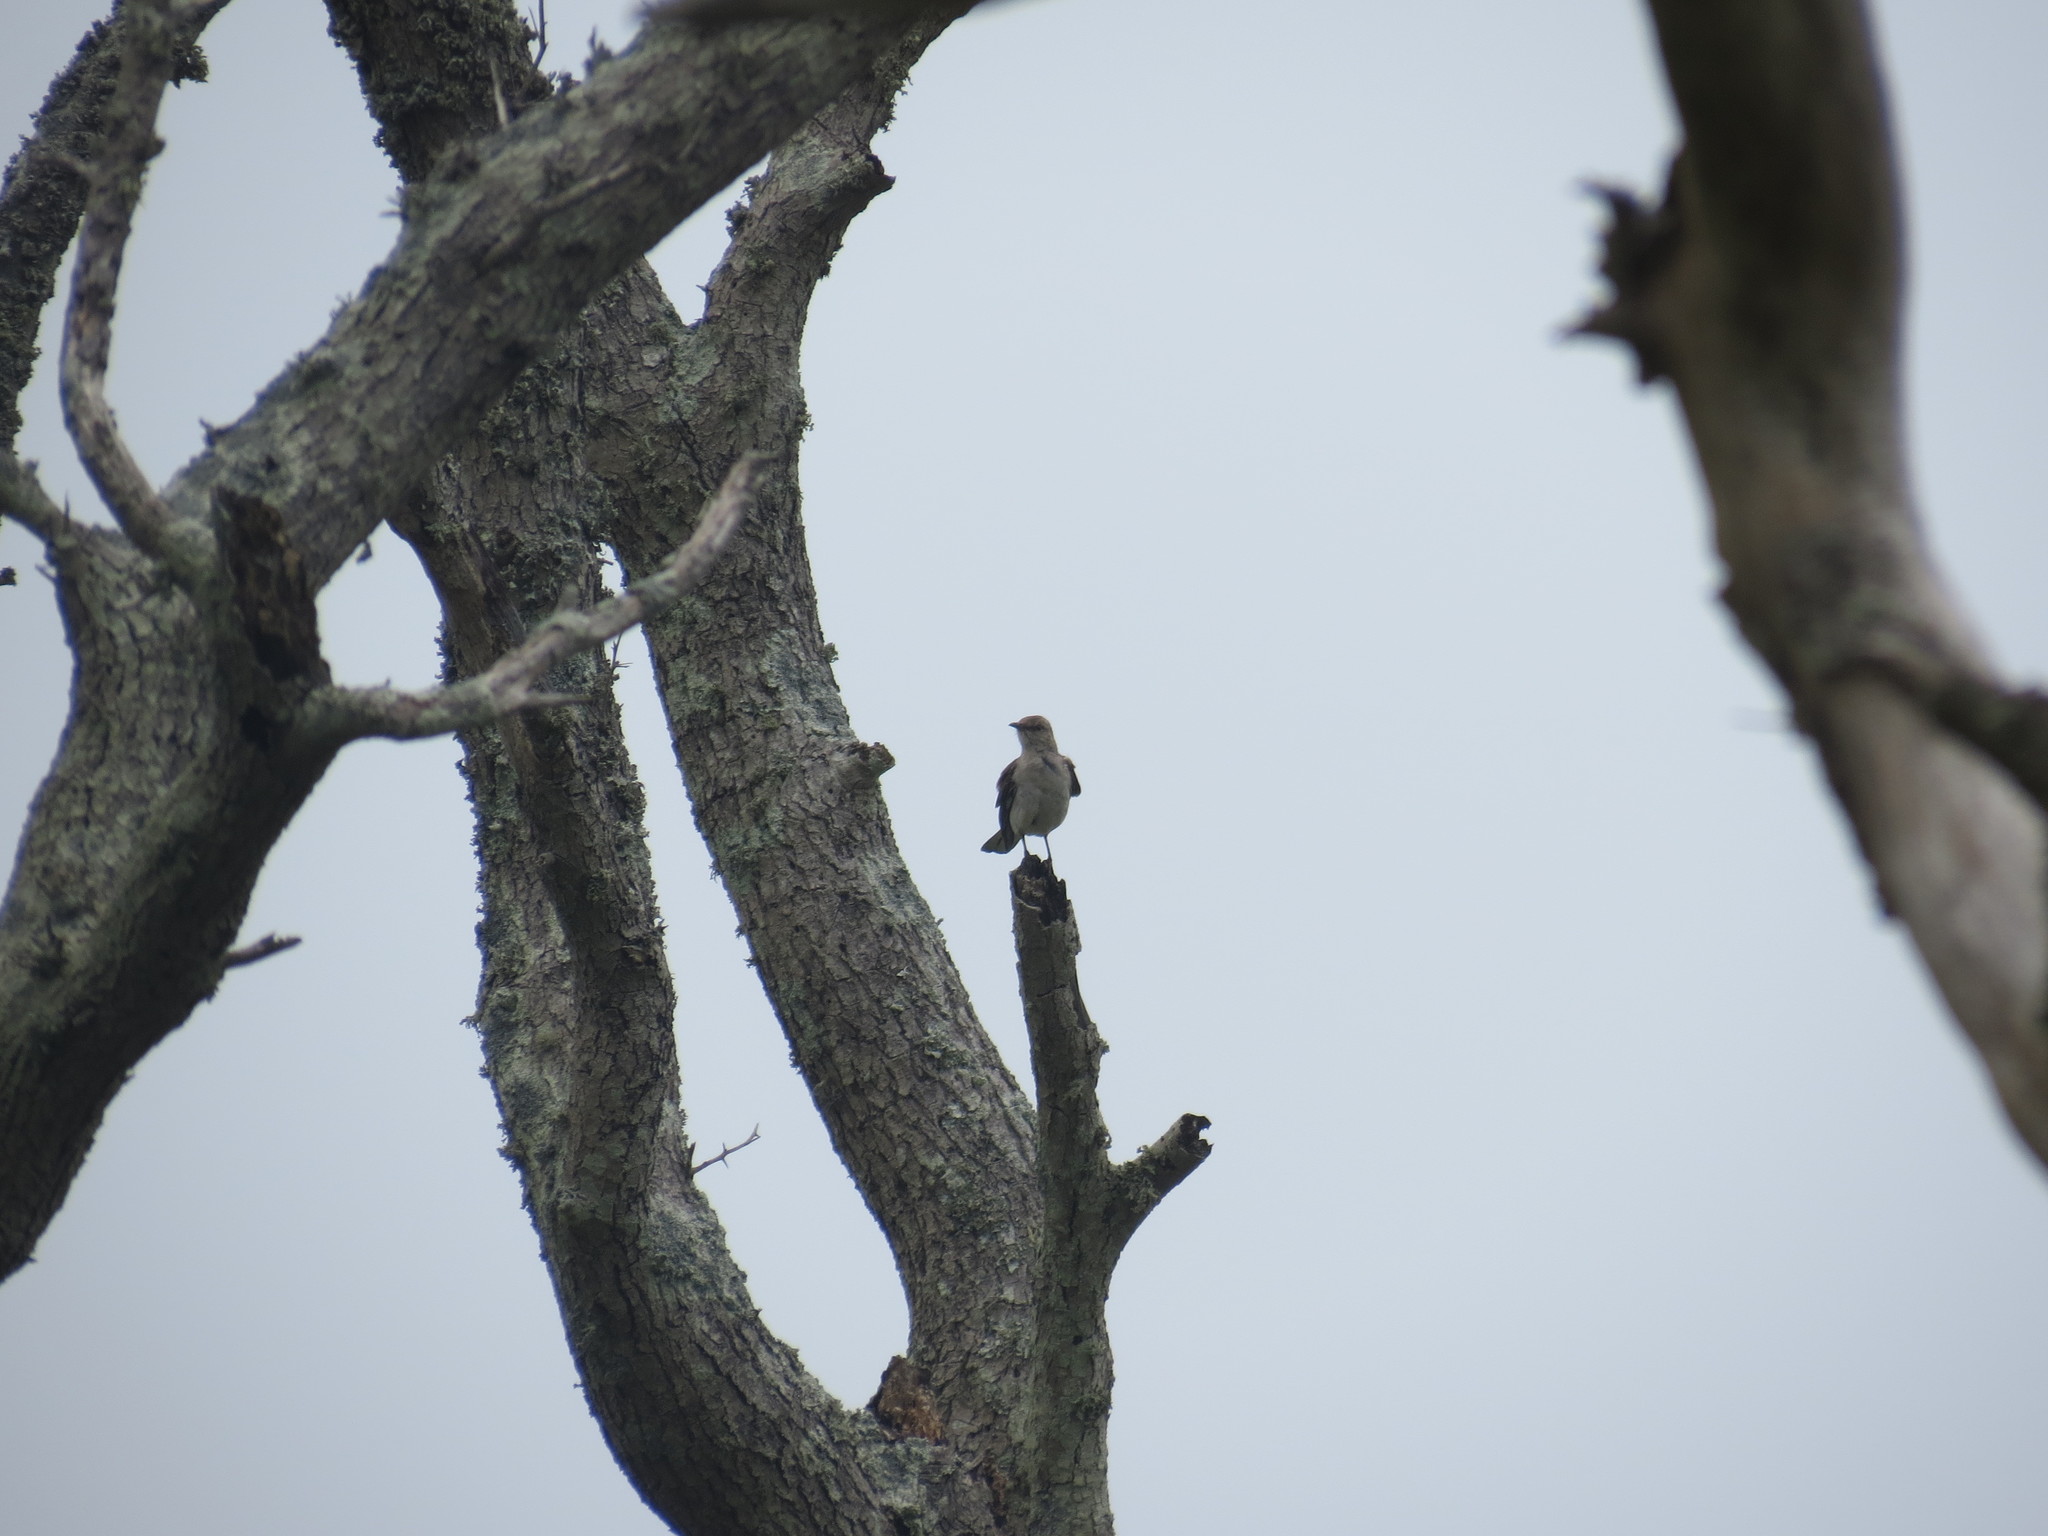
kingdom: Animalia
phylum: Chordata
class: Aves
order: Passeriformes
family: Mimidae
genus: Mimus
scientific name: Mimus polyglottos
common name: Northern mockingbird
